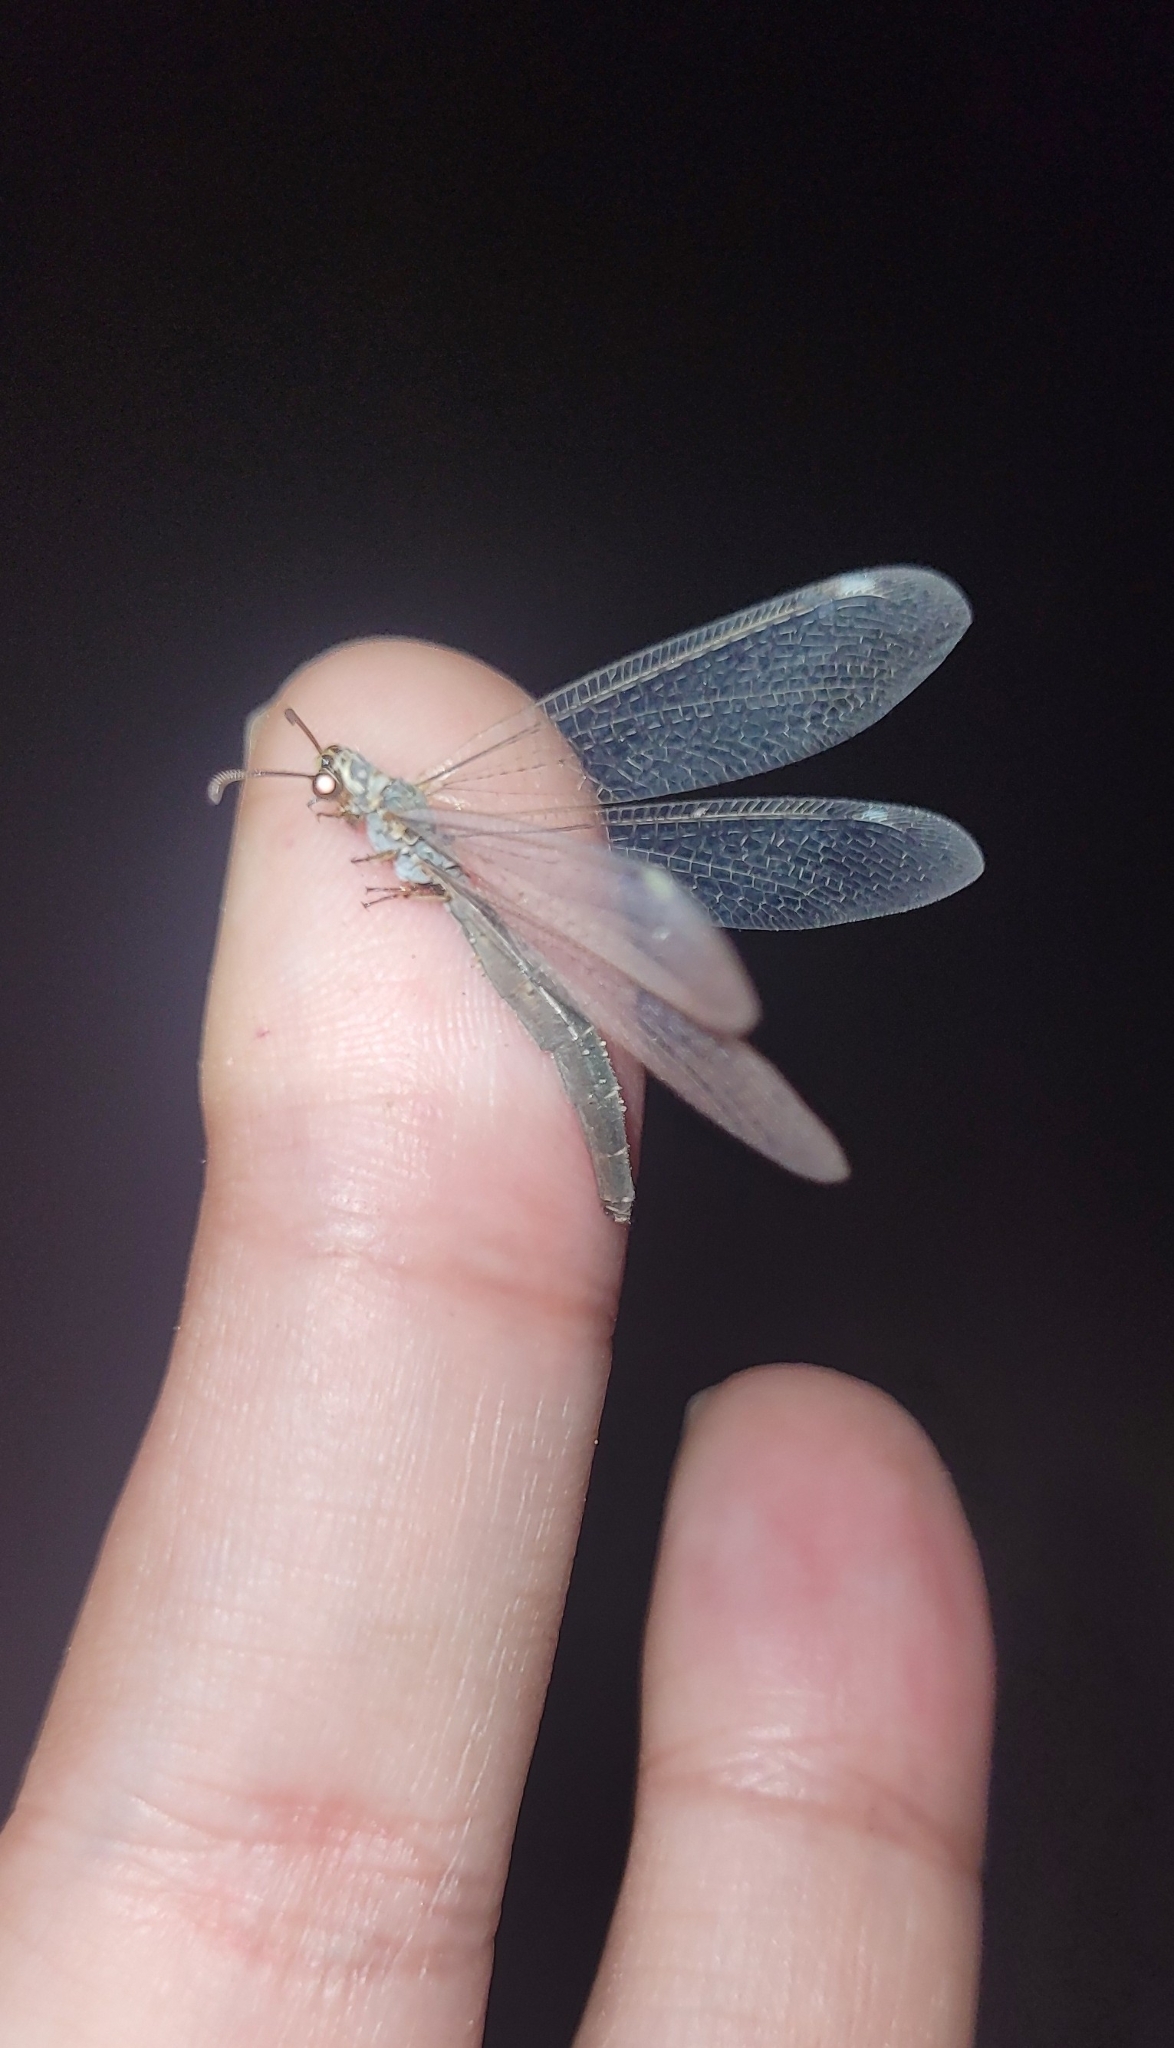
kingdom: Animalia
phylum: Arthropoda
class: Insecta
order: Neuroptera
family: Myrmeleontidae
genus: Myrmeleon
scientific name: Myrmeleon inconspicuus
